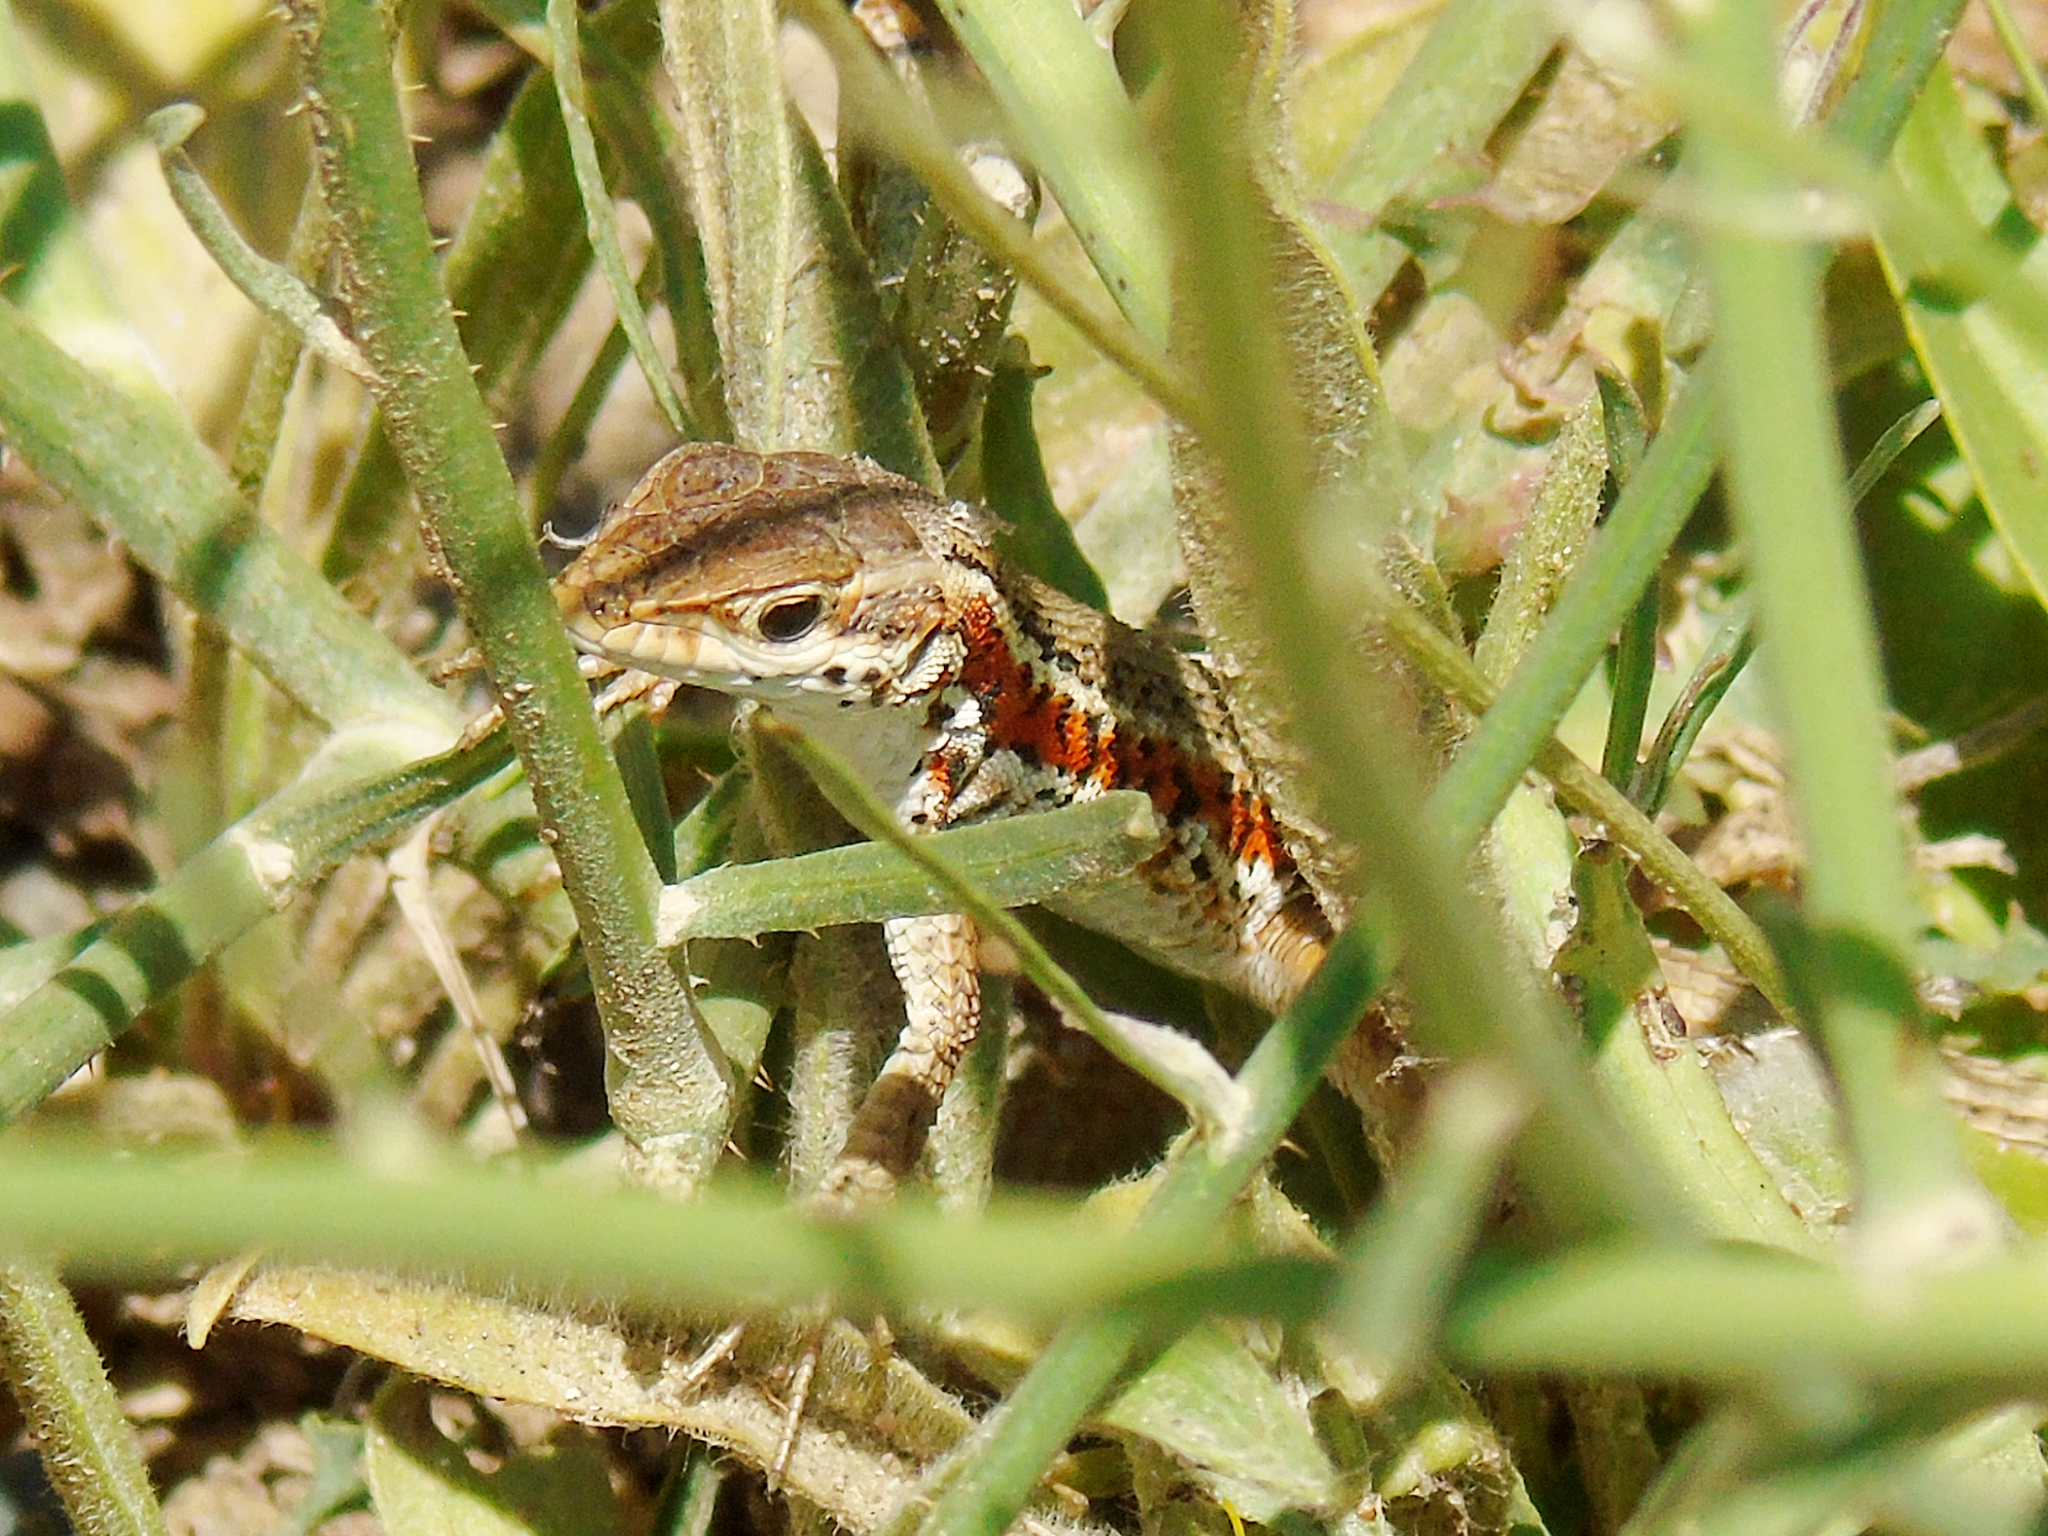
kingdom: Animalia
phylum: Chordata
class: Squamata
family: Lacertidae
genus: Ophisops
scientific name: Ophisops elegans
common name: Snake-eyed lizard
